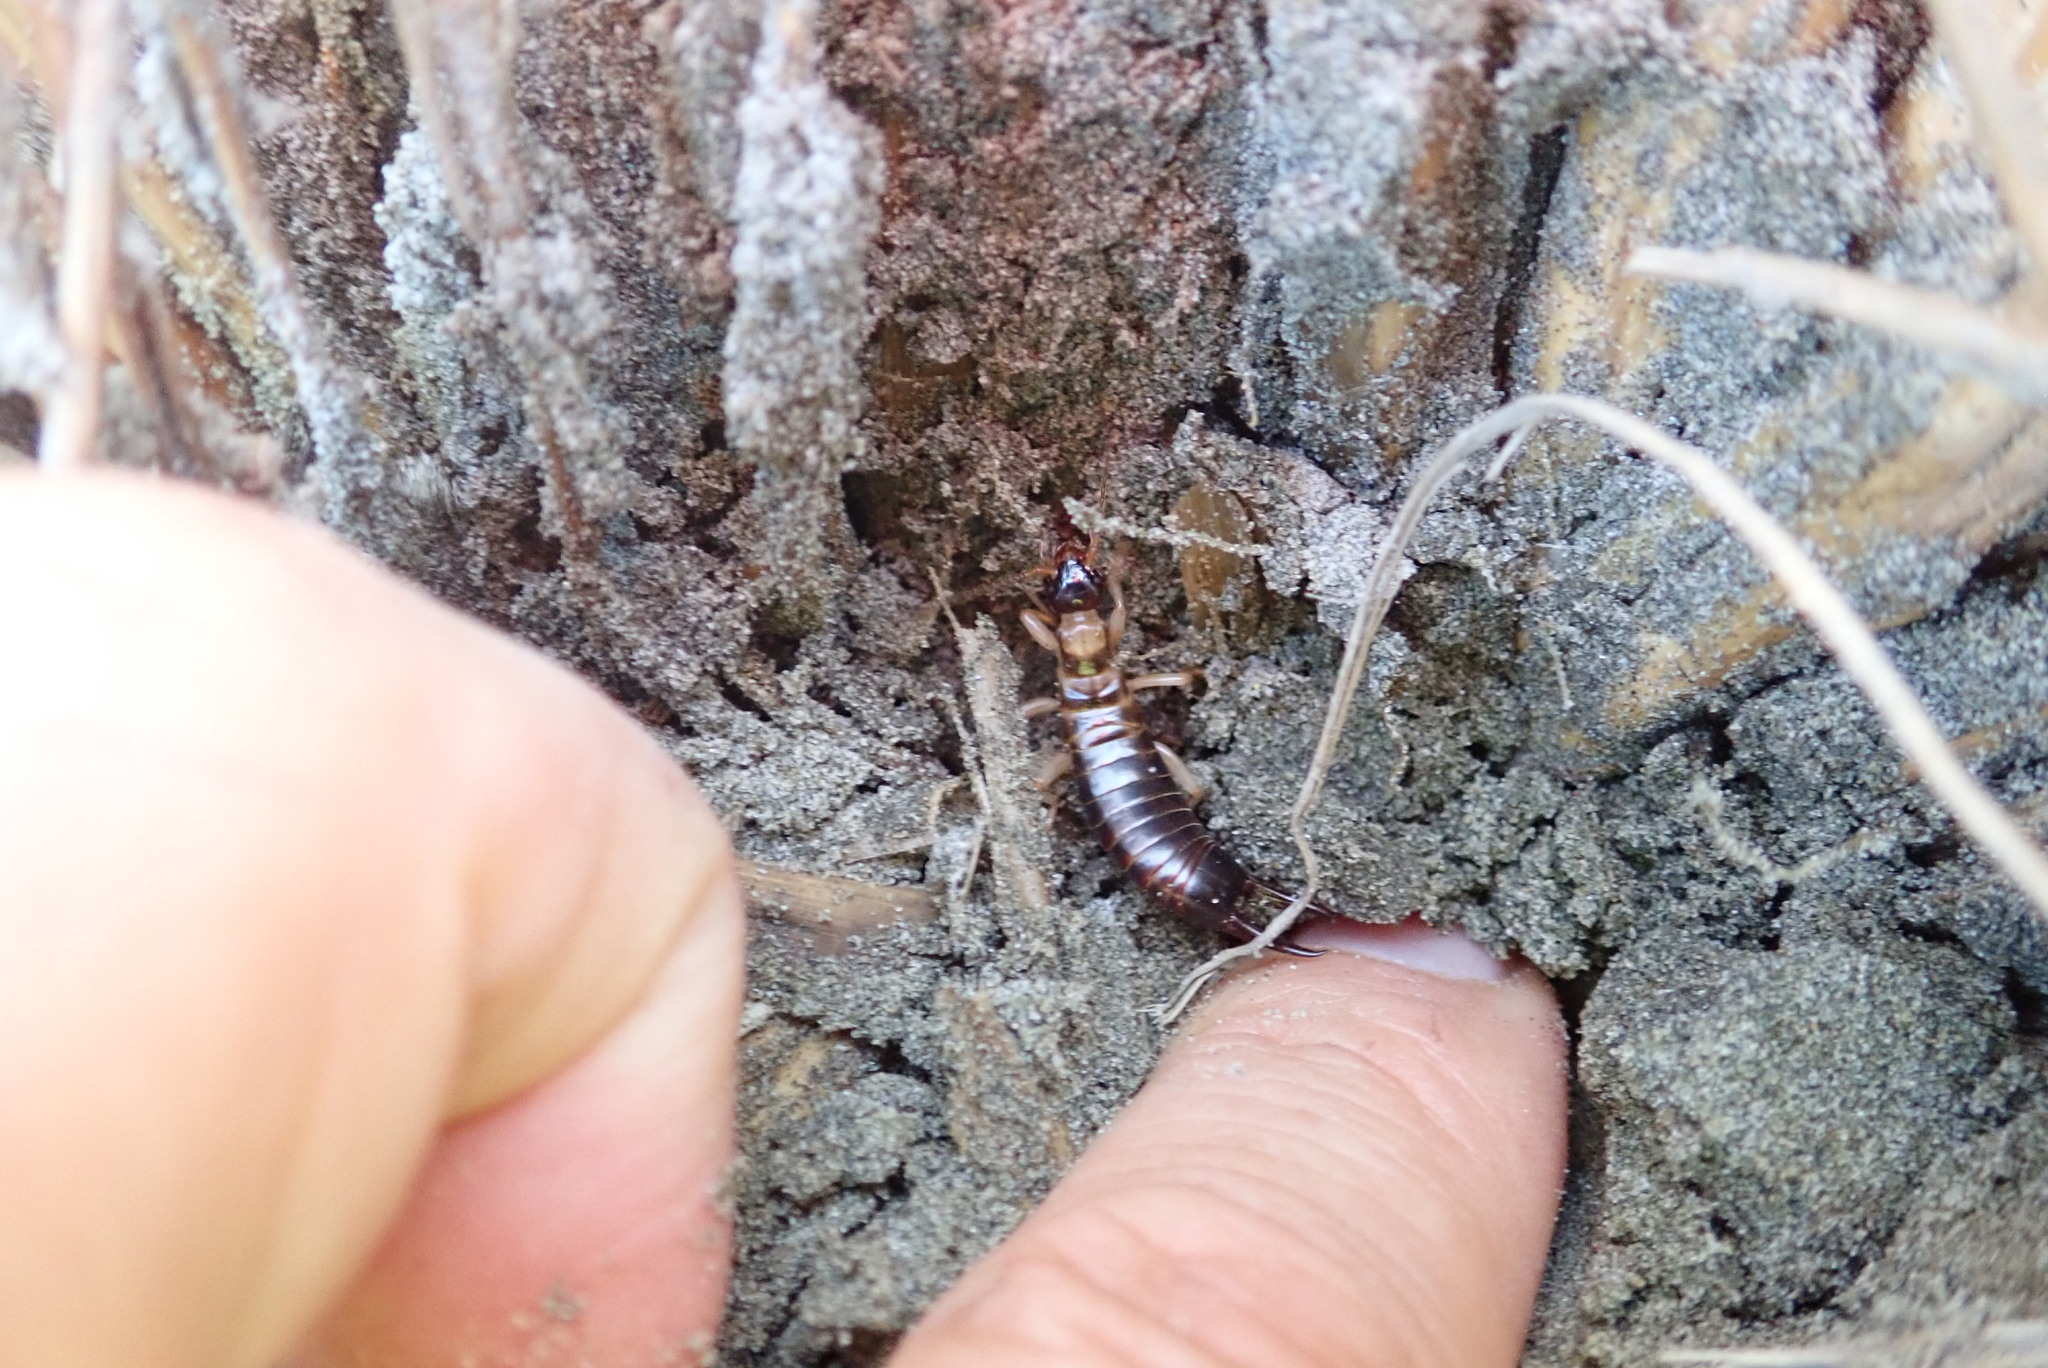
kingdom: Animalia
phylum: Arthropoda
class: Insecta
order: Dermaptera
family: Anisolabididae
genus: Anisolabis
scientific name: Anisolabis littorea
